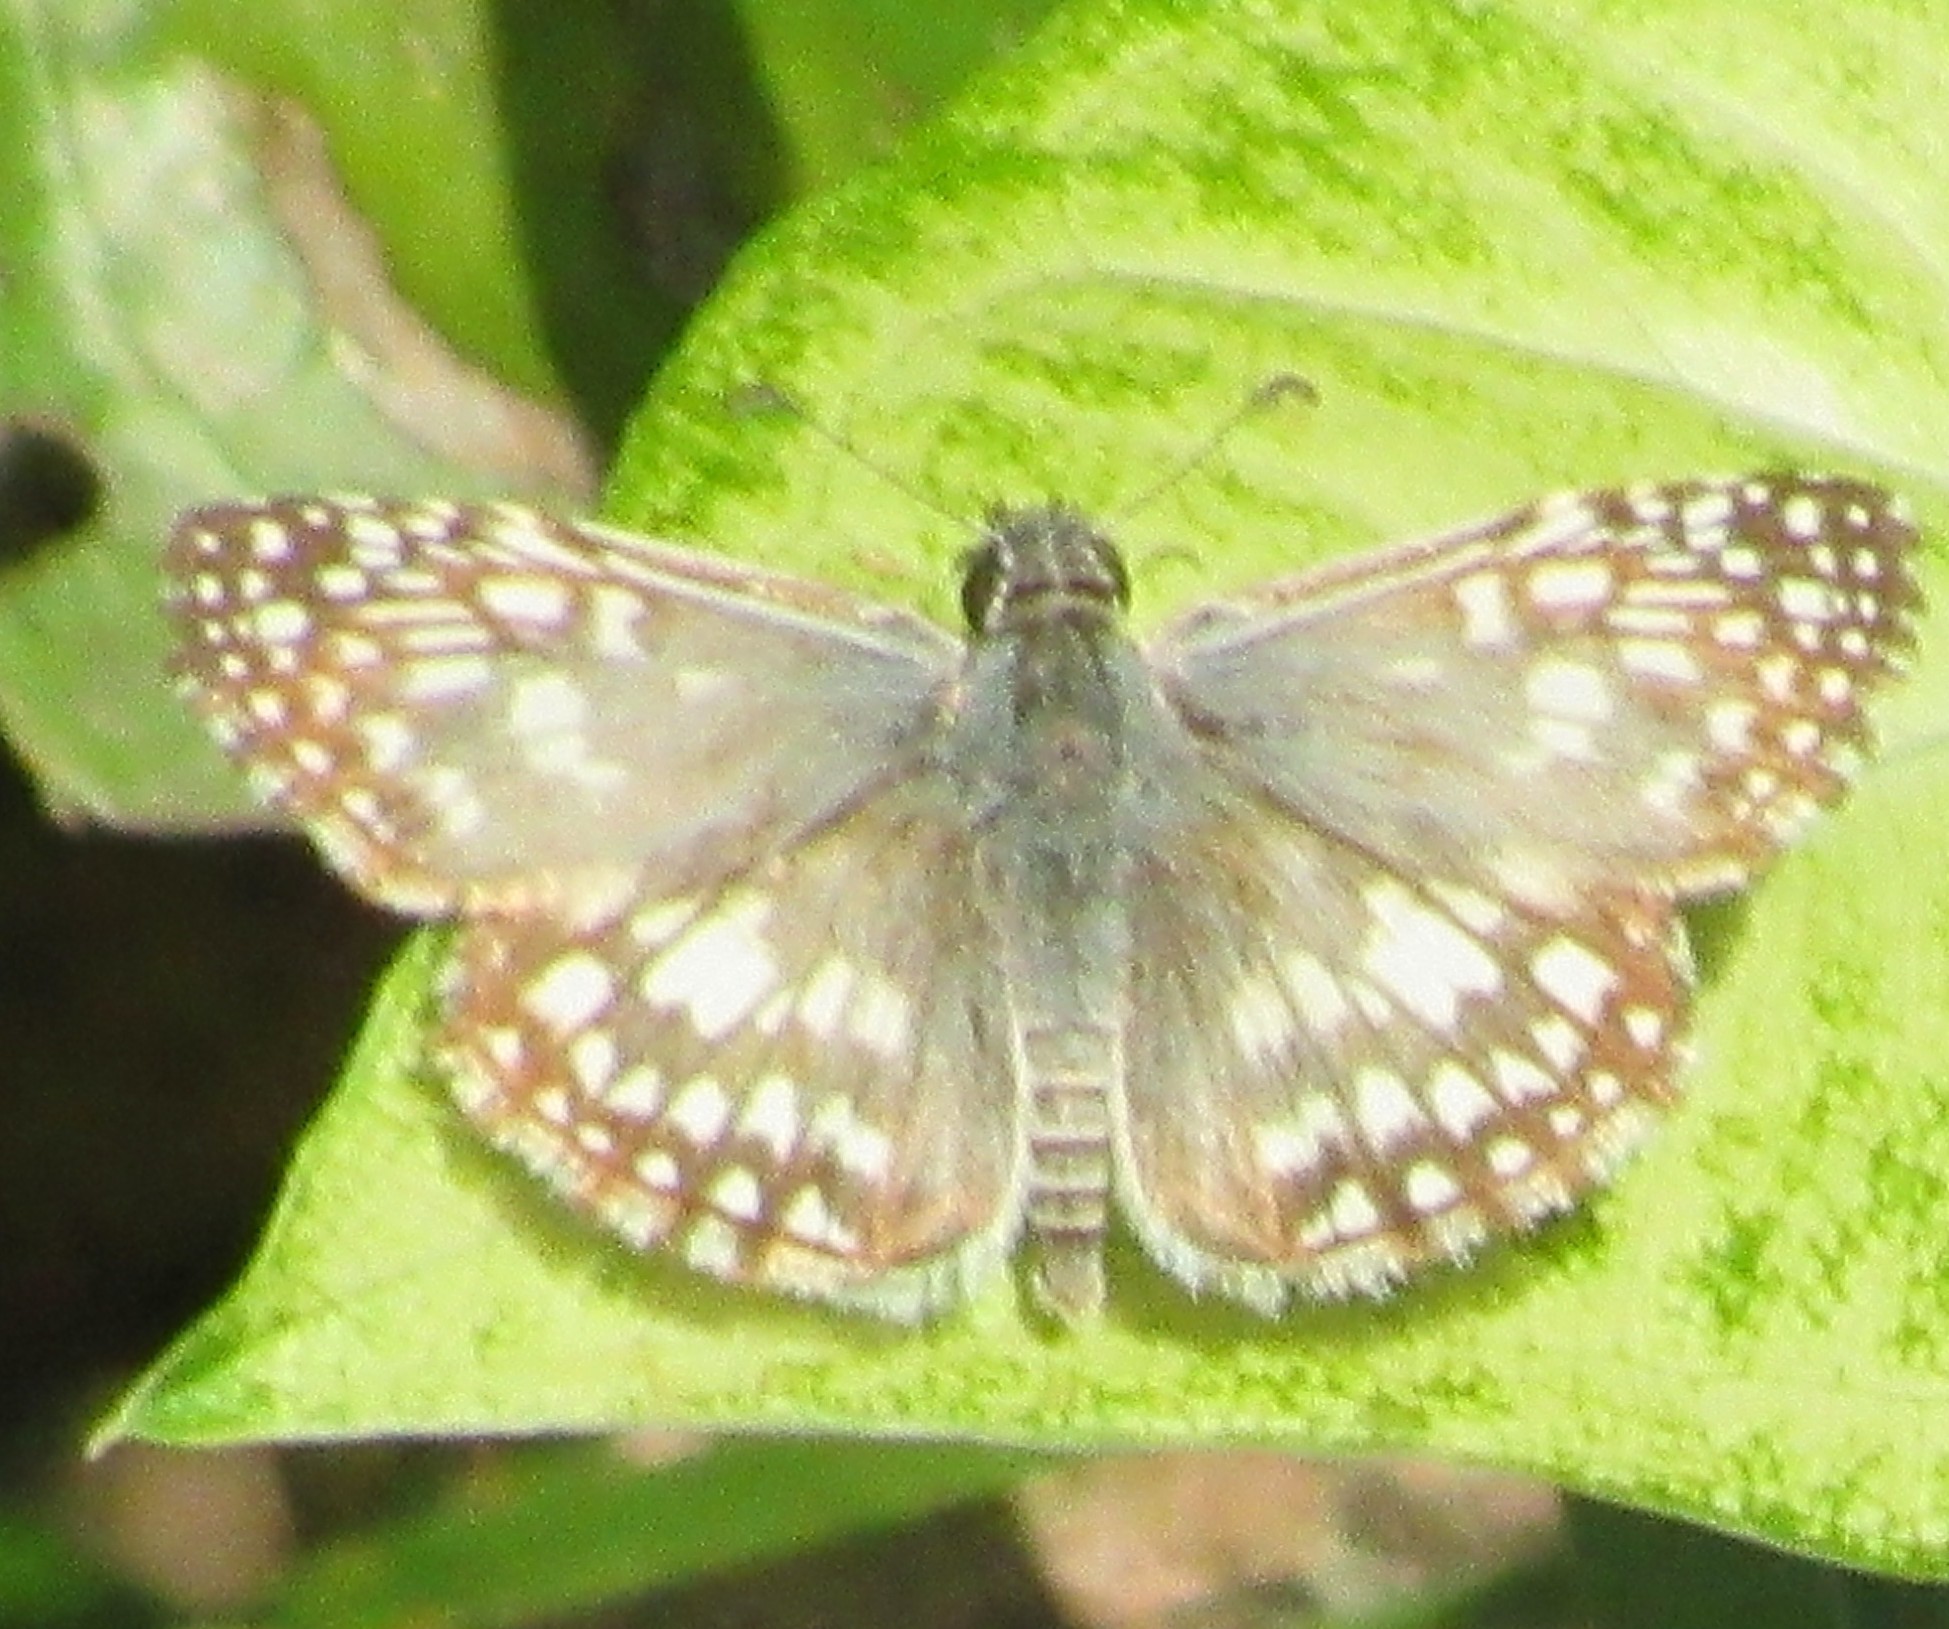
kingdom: Animalia
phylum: Arthropoda
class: Insecta
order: Lepidoptera
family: Hesperiidae
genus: Pyrgus
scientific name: Pyrgus oileus
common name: Tropical checkered-skipper
